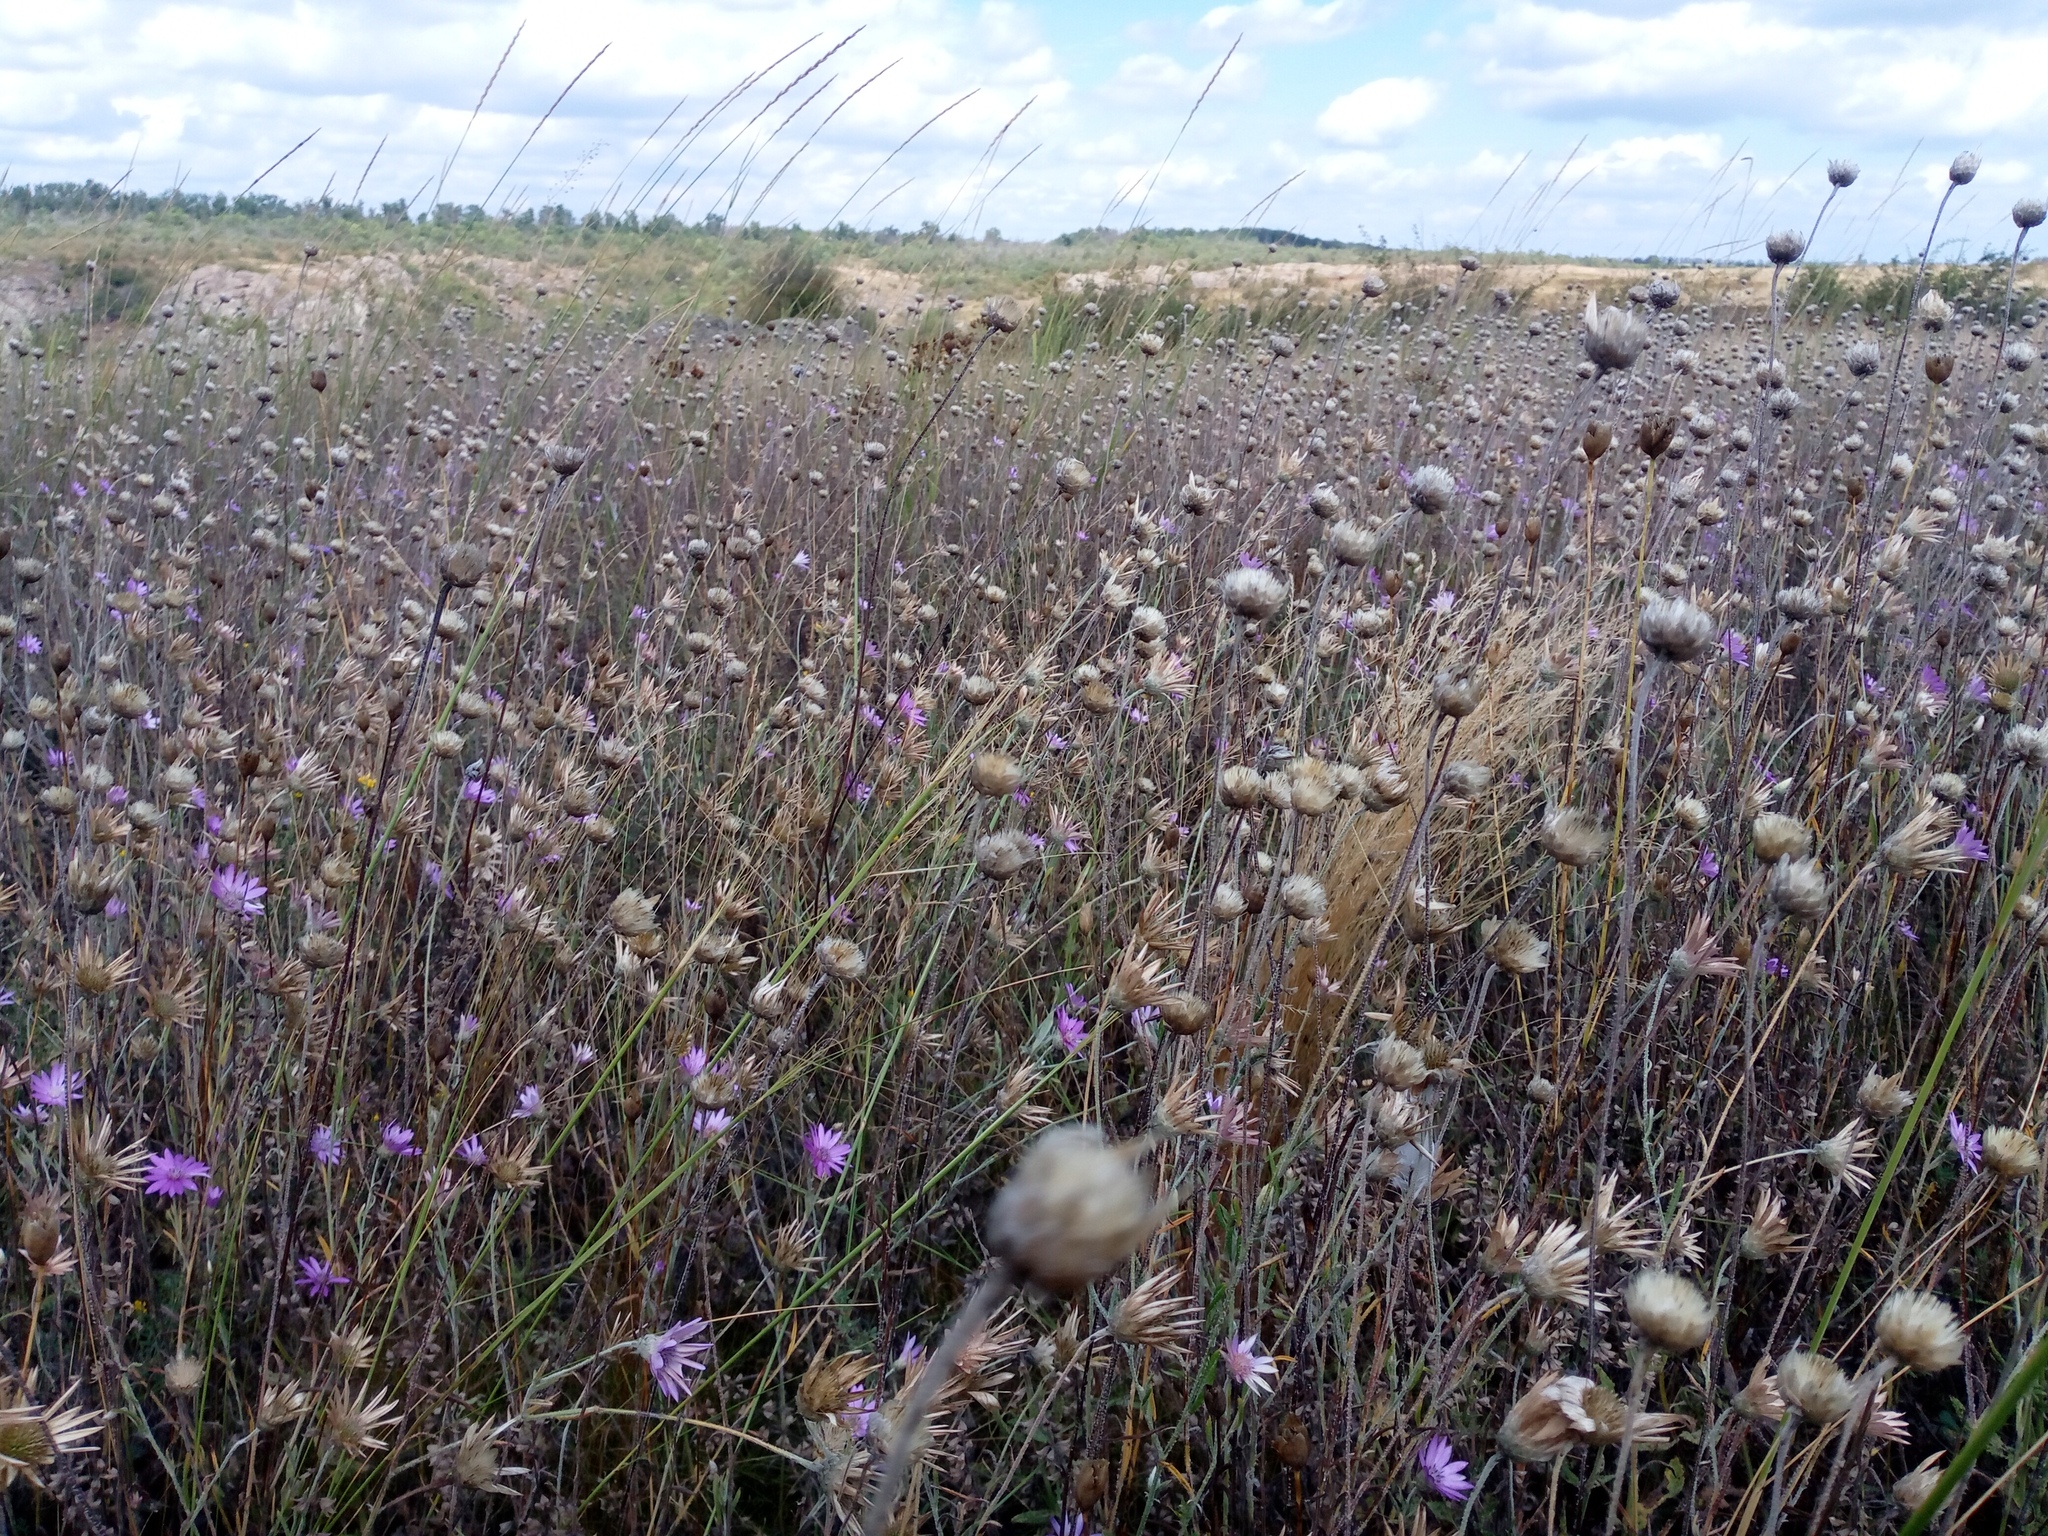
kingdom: Plantae
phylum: Tracheophyta
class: Magnoliopsida
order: Asterales
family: Asteraceae
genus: Xeranthemum
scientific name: Xeranthemum annuum
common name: Immortelle
